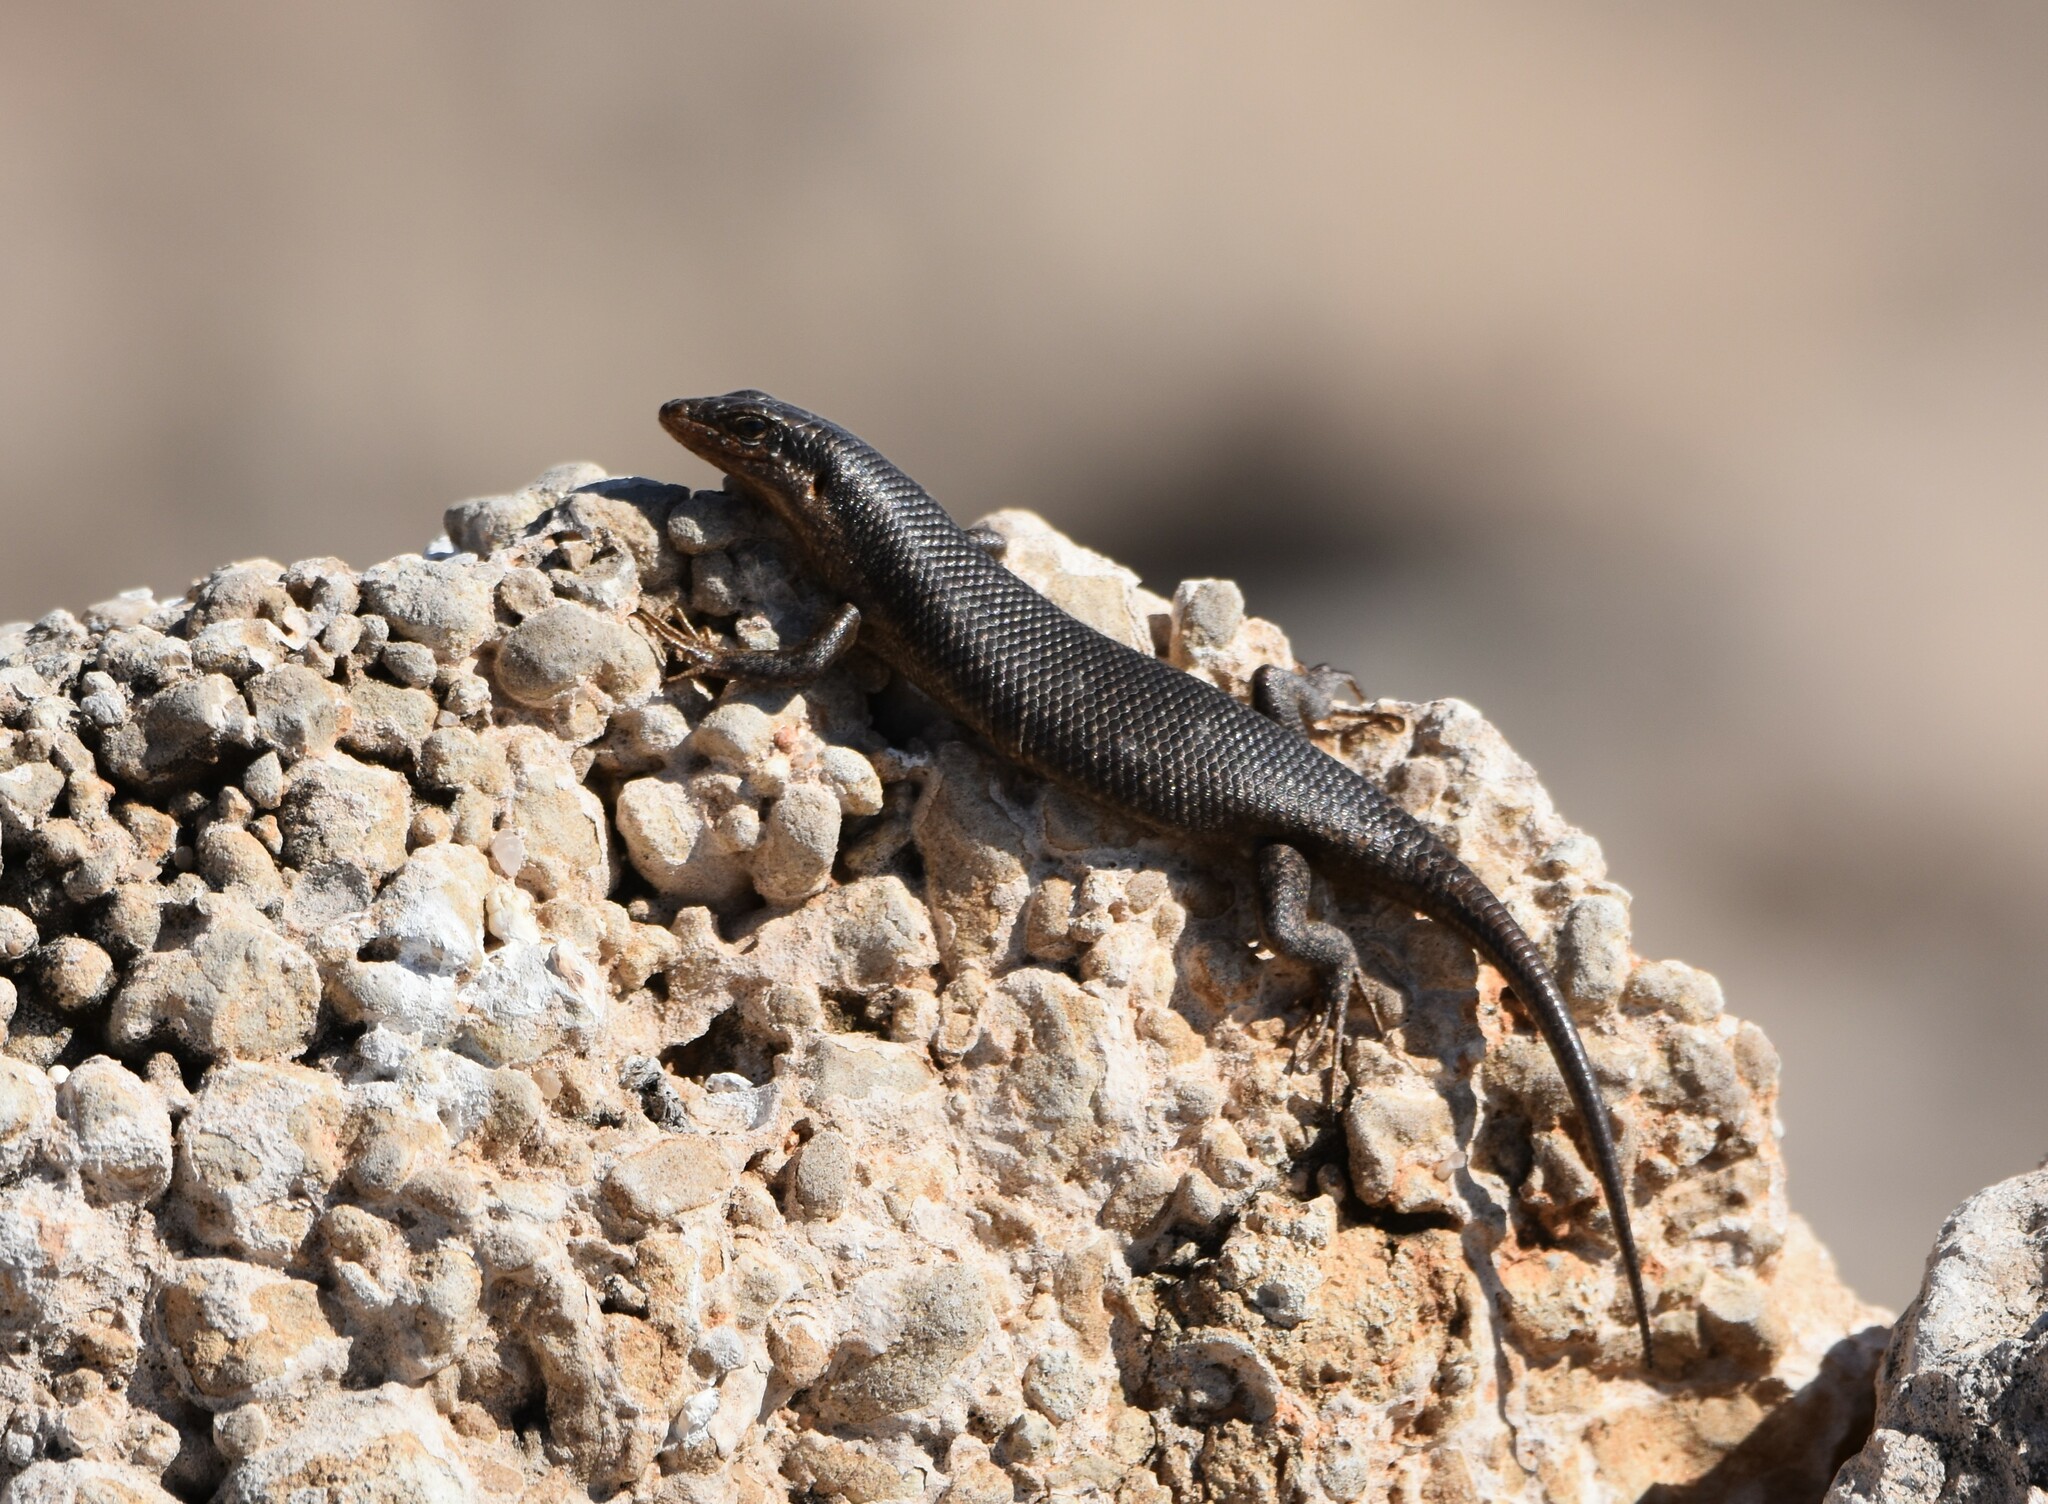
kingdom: Animalia
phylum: Chordata
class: Squamata
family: Scincidae
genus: Trachylepis
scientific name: Trachylepis sparsa
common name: Karasburg tree skink
